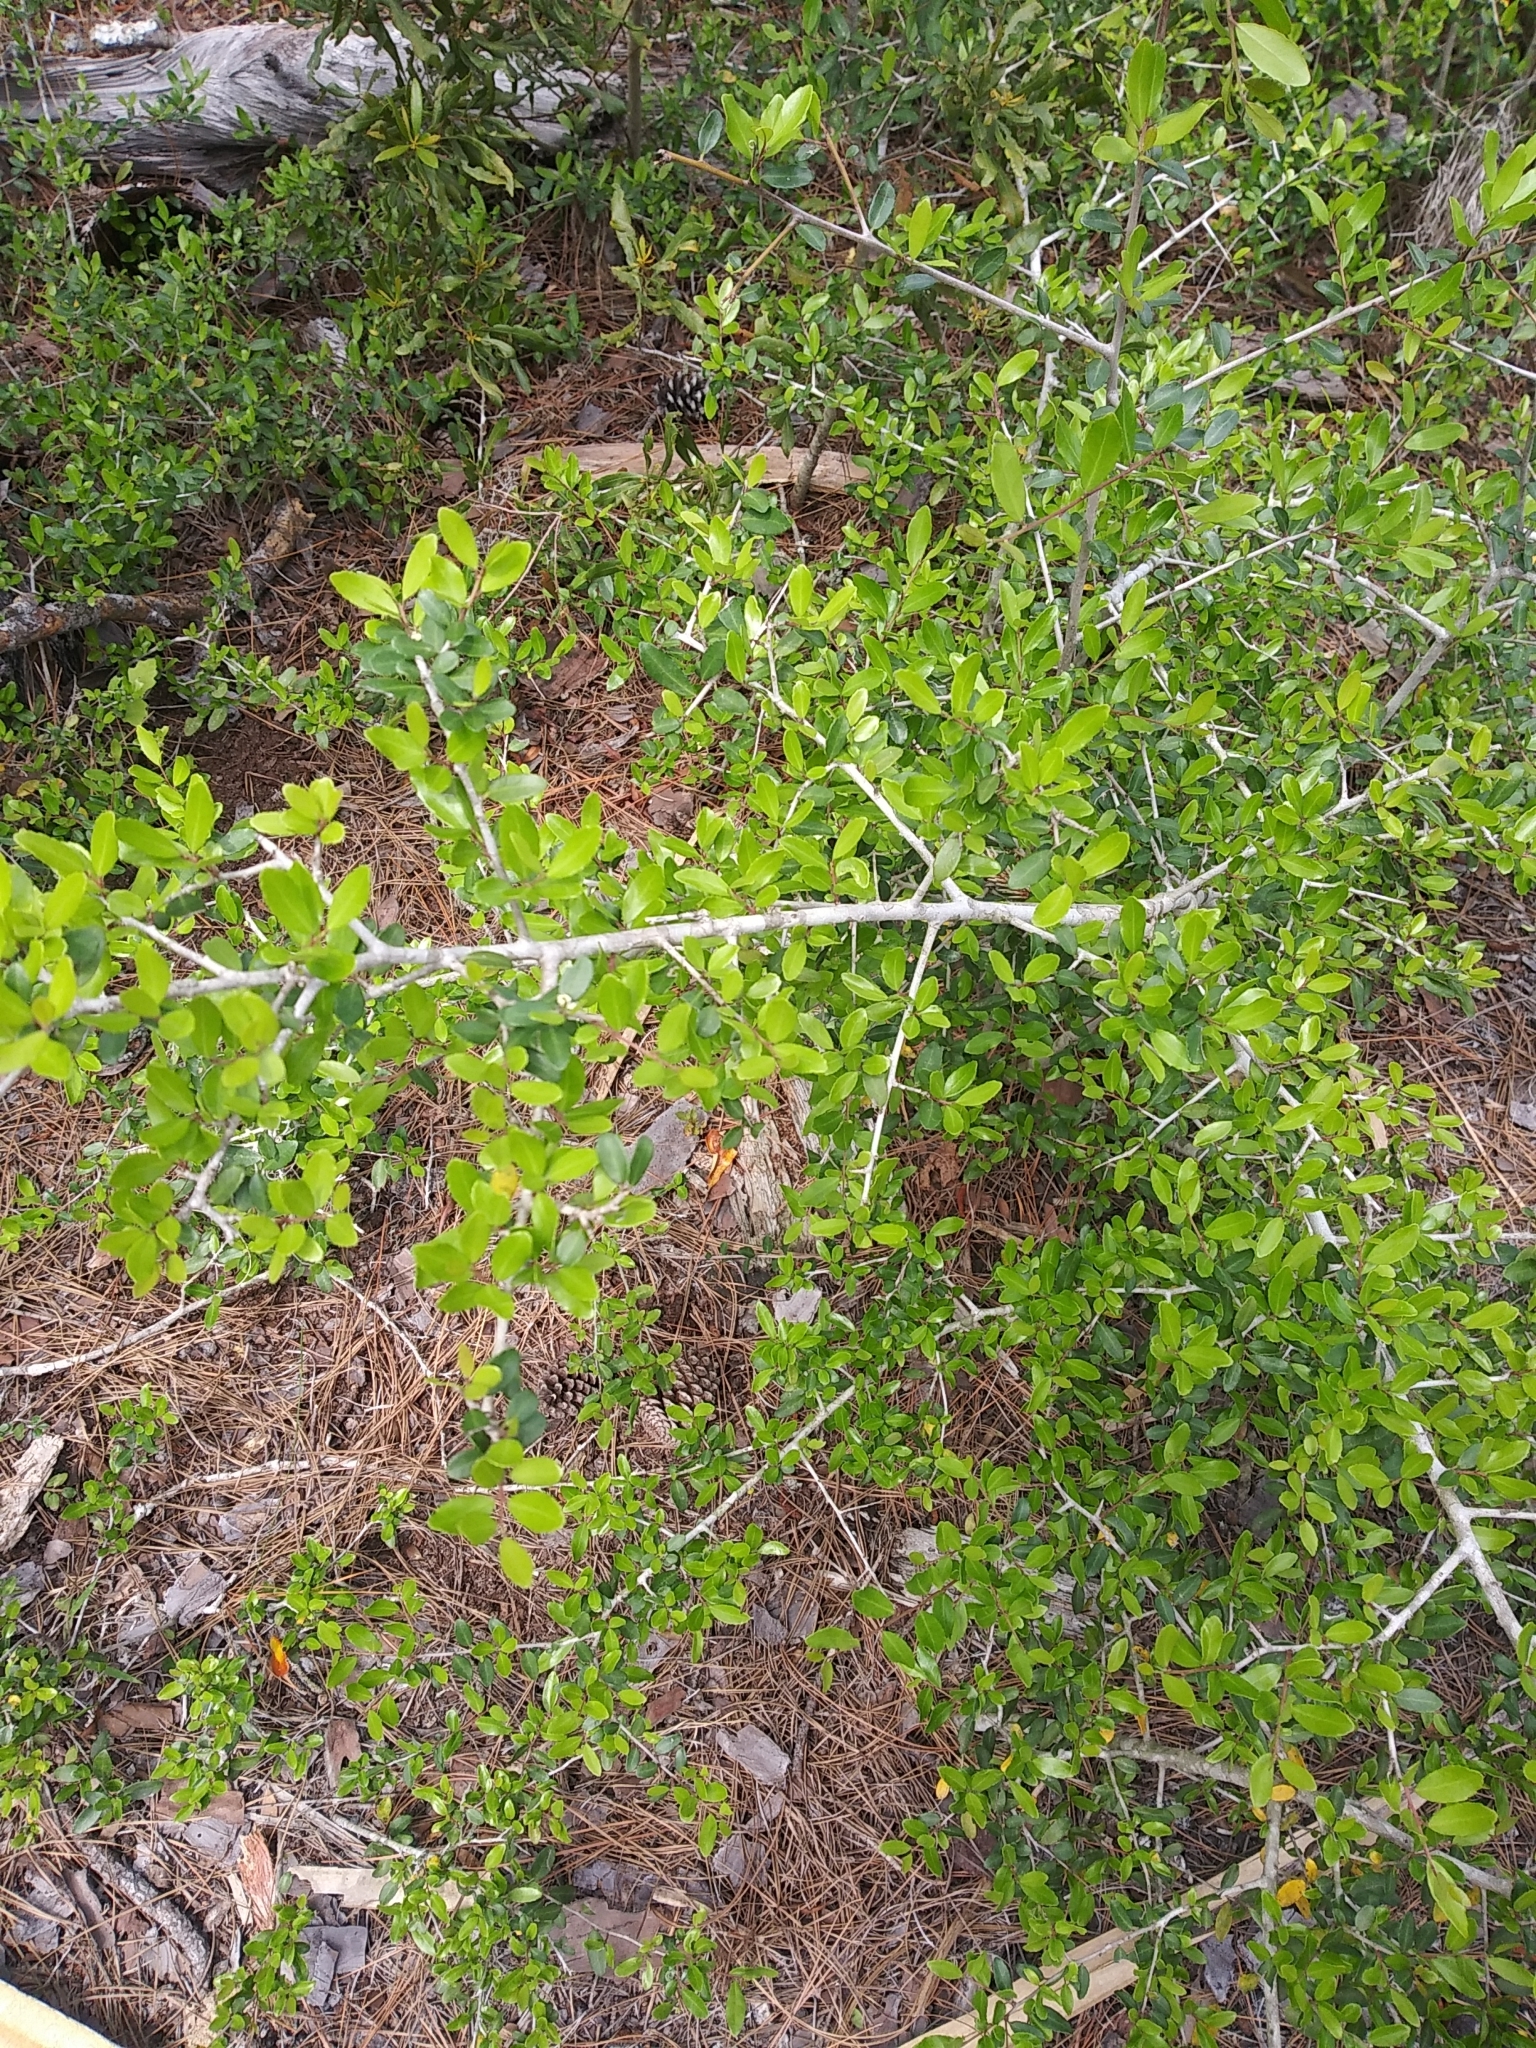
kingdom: Plantae
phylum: Tracheophyta
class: Magnoliopsida
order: Aquifoliales
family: Aquifoliaceae
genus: Ilex
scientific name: Ilex vomitoria
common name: Yaupon holly
